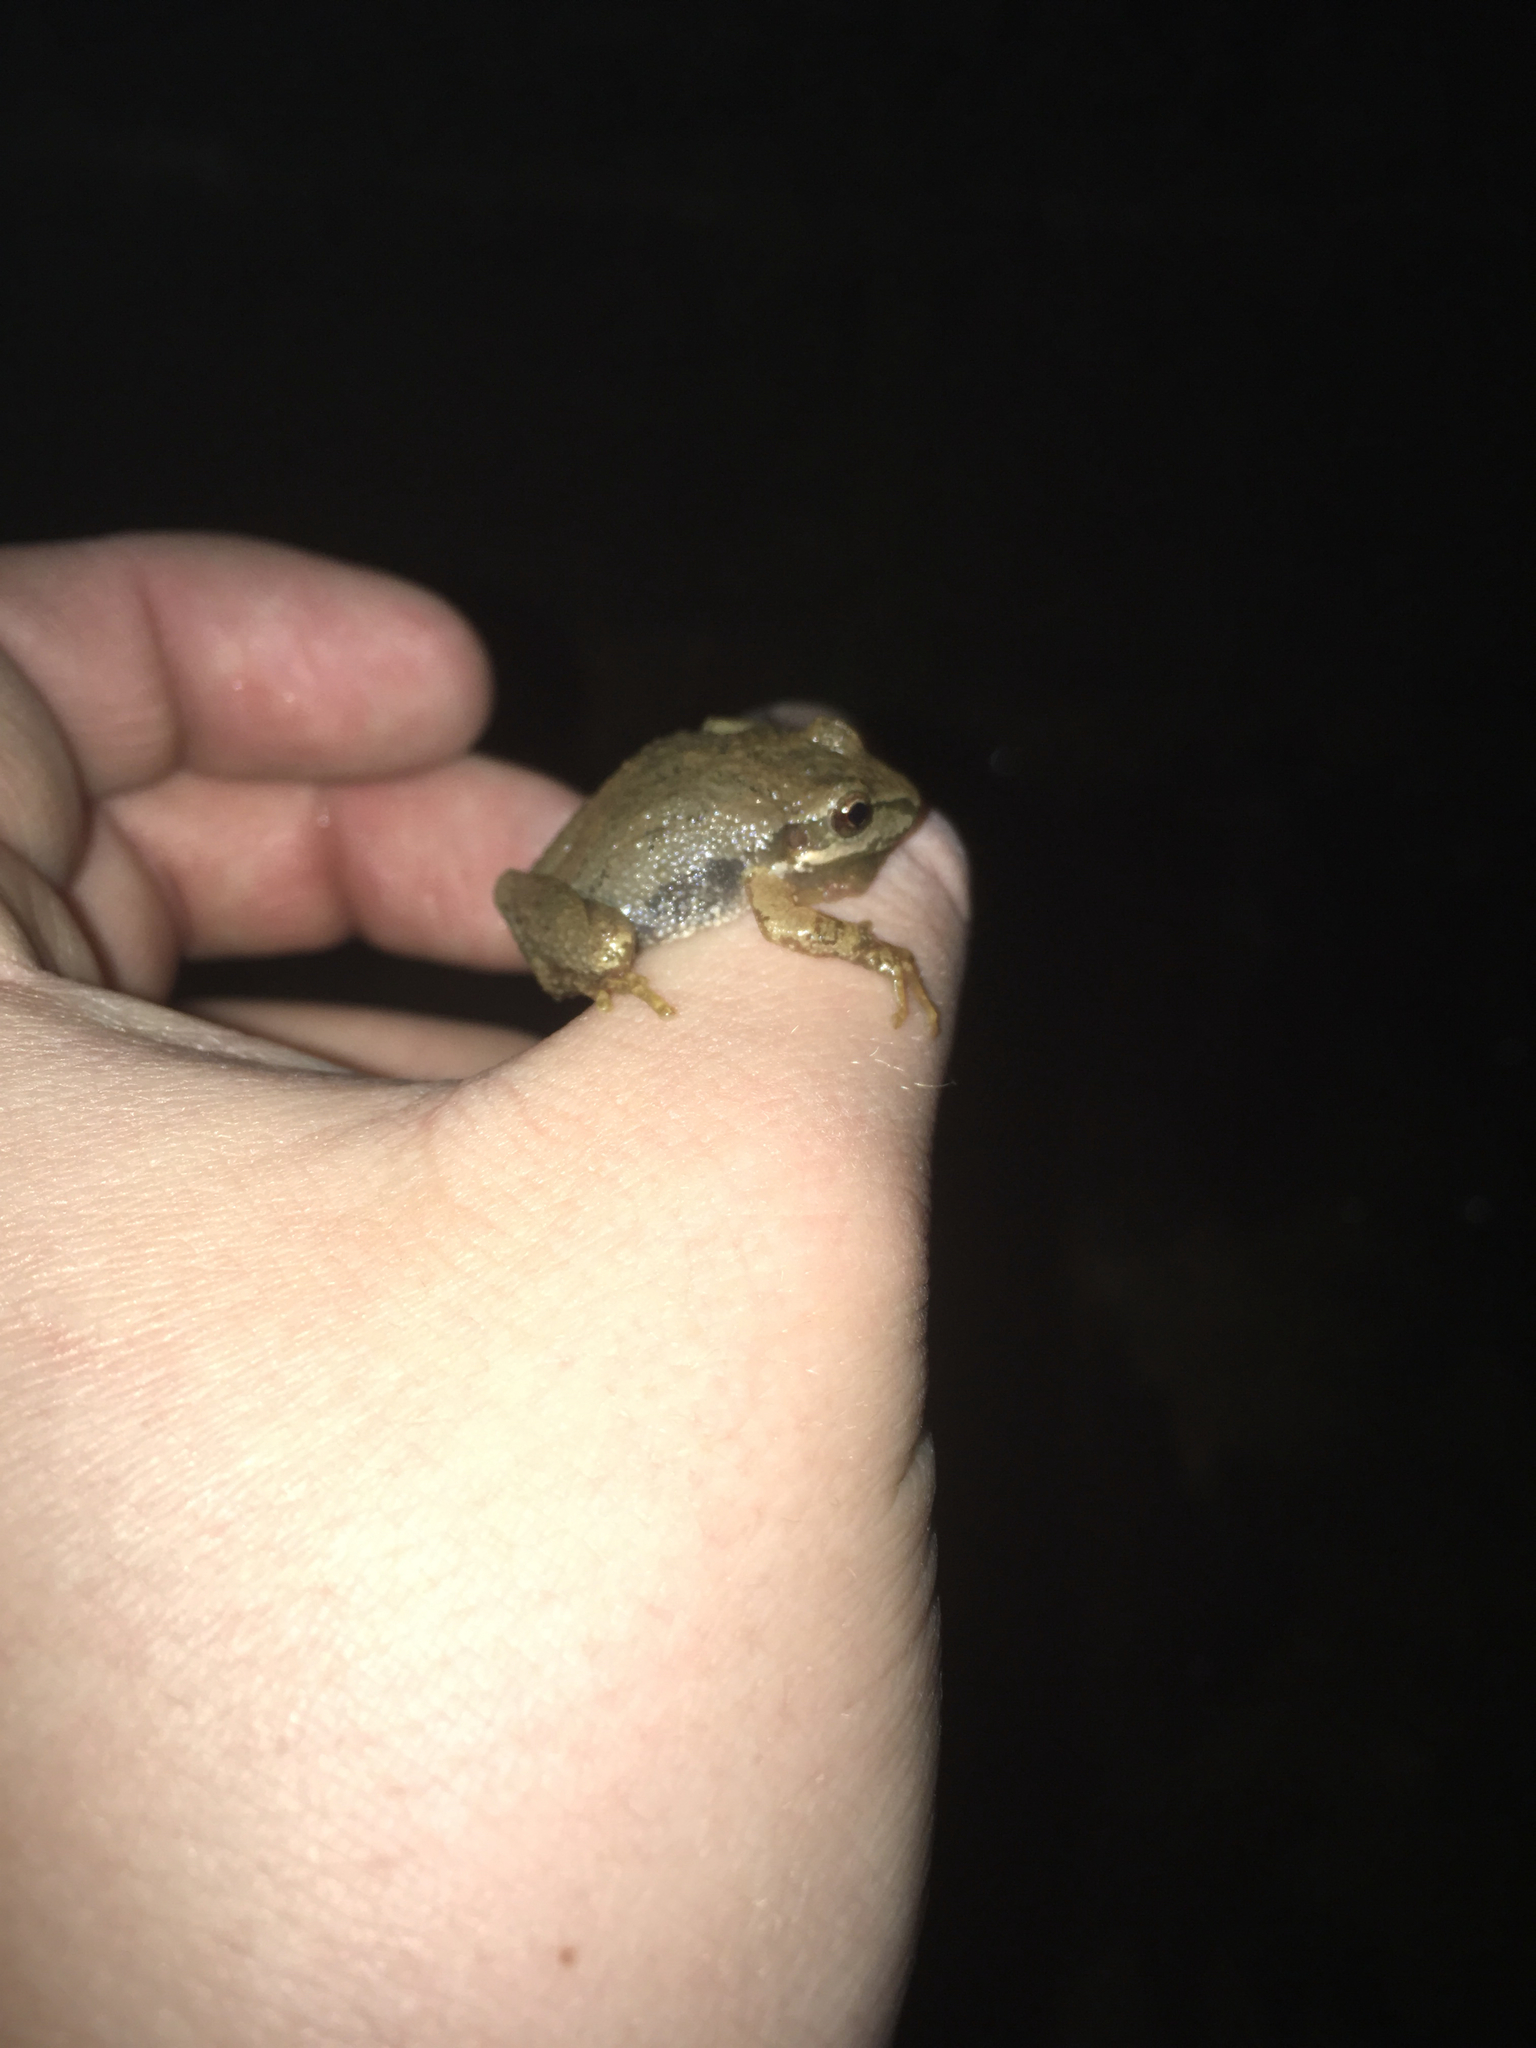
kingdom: Animalia
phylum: Chordata
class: Amphibia
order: Anura
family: Hylidae
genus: Pseudacris
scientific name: Pseudacris brachyphona
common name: Mountain chorus frog
